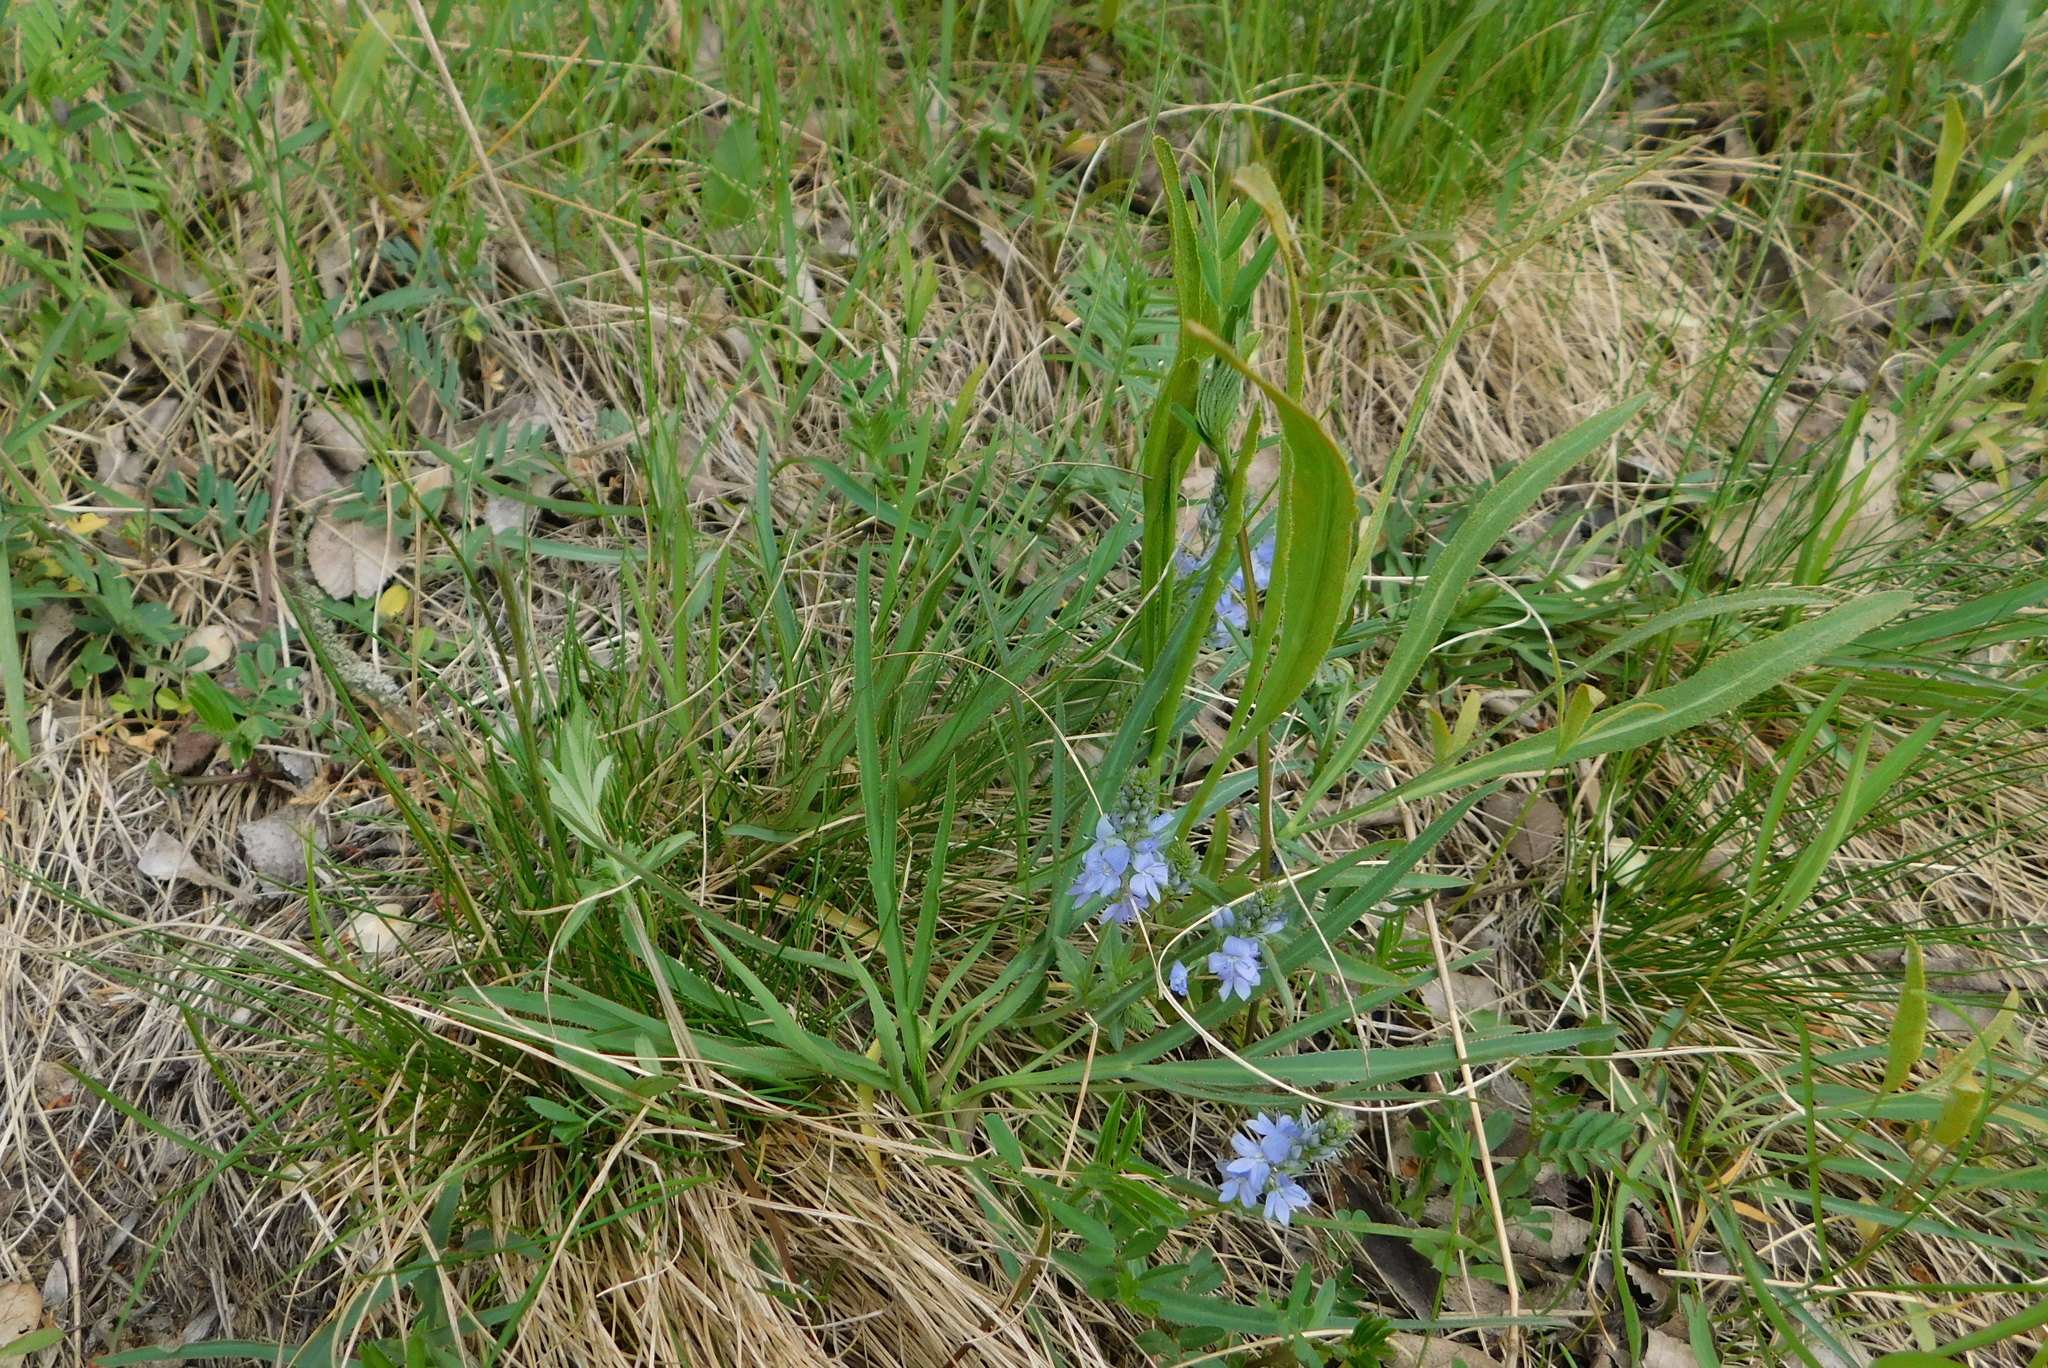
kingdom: Plantae
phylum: Tracheophyta
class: Magnoliopsida
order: Apiales
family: Apiaceae
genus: Falcaria
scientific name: Falcaria vulgaris
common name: Longleaf
